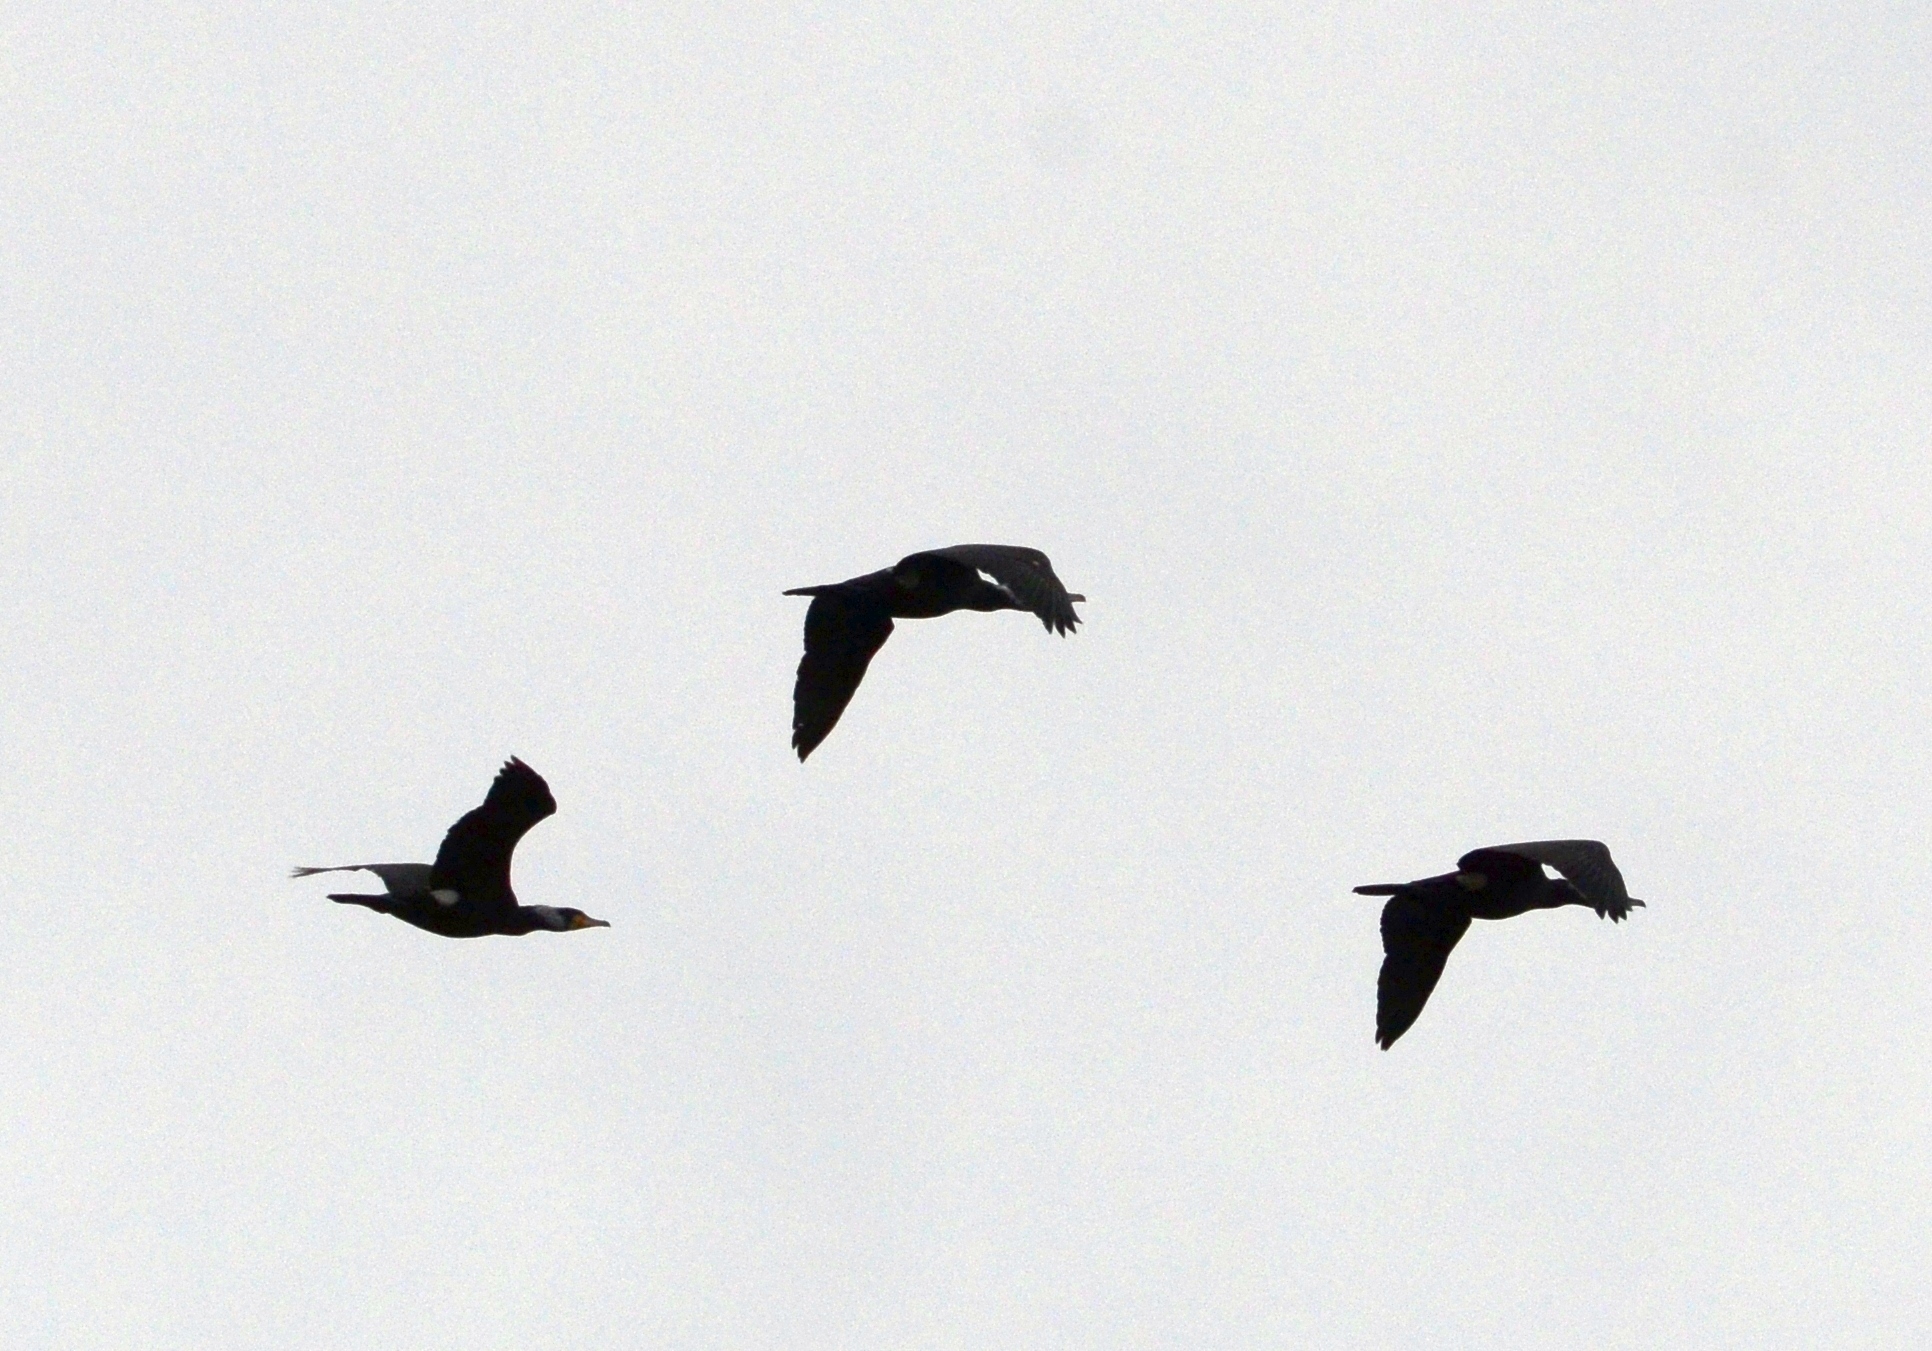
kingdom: Animalia
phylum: Chordata
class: Aves
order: Suliformes
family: Phalacrocoracidae
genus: Phalacrocorax
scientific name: Phalacrocorax carbo
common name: Great cormorant
